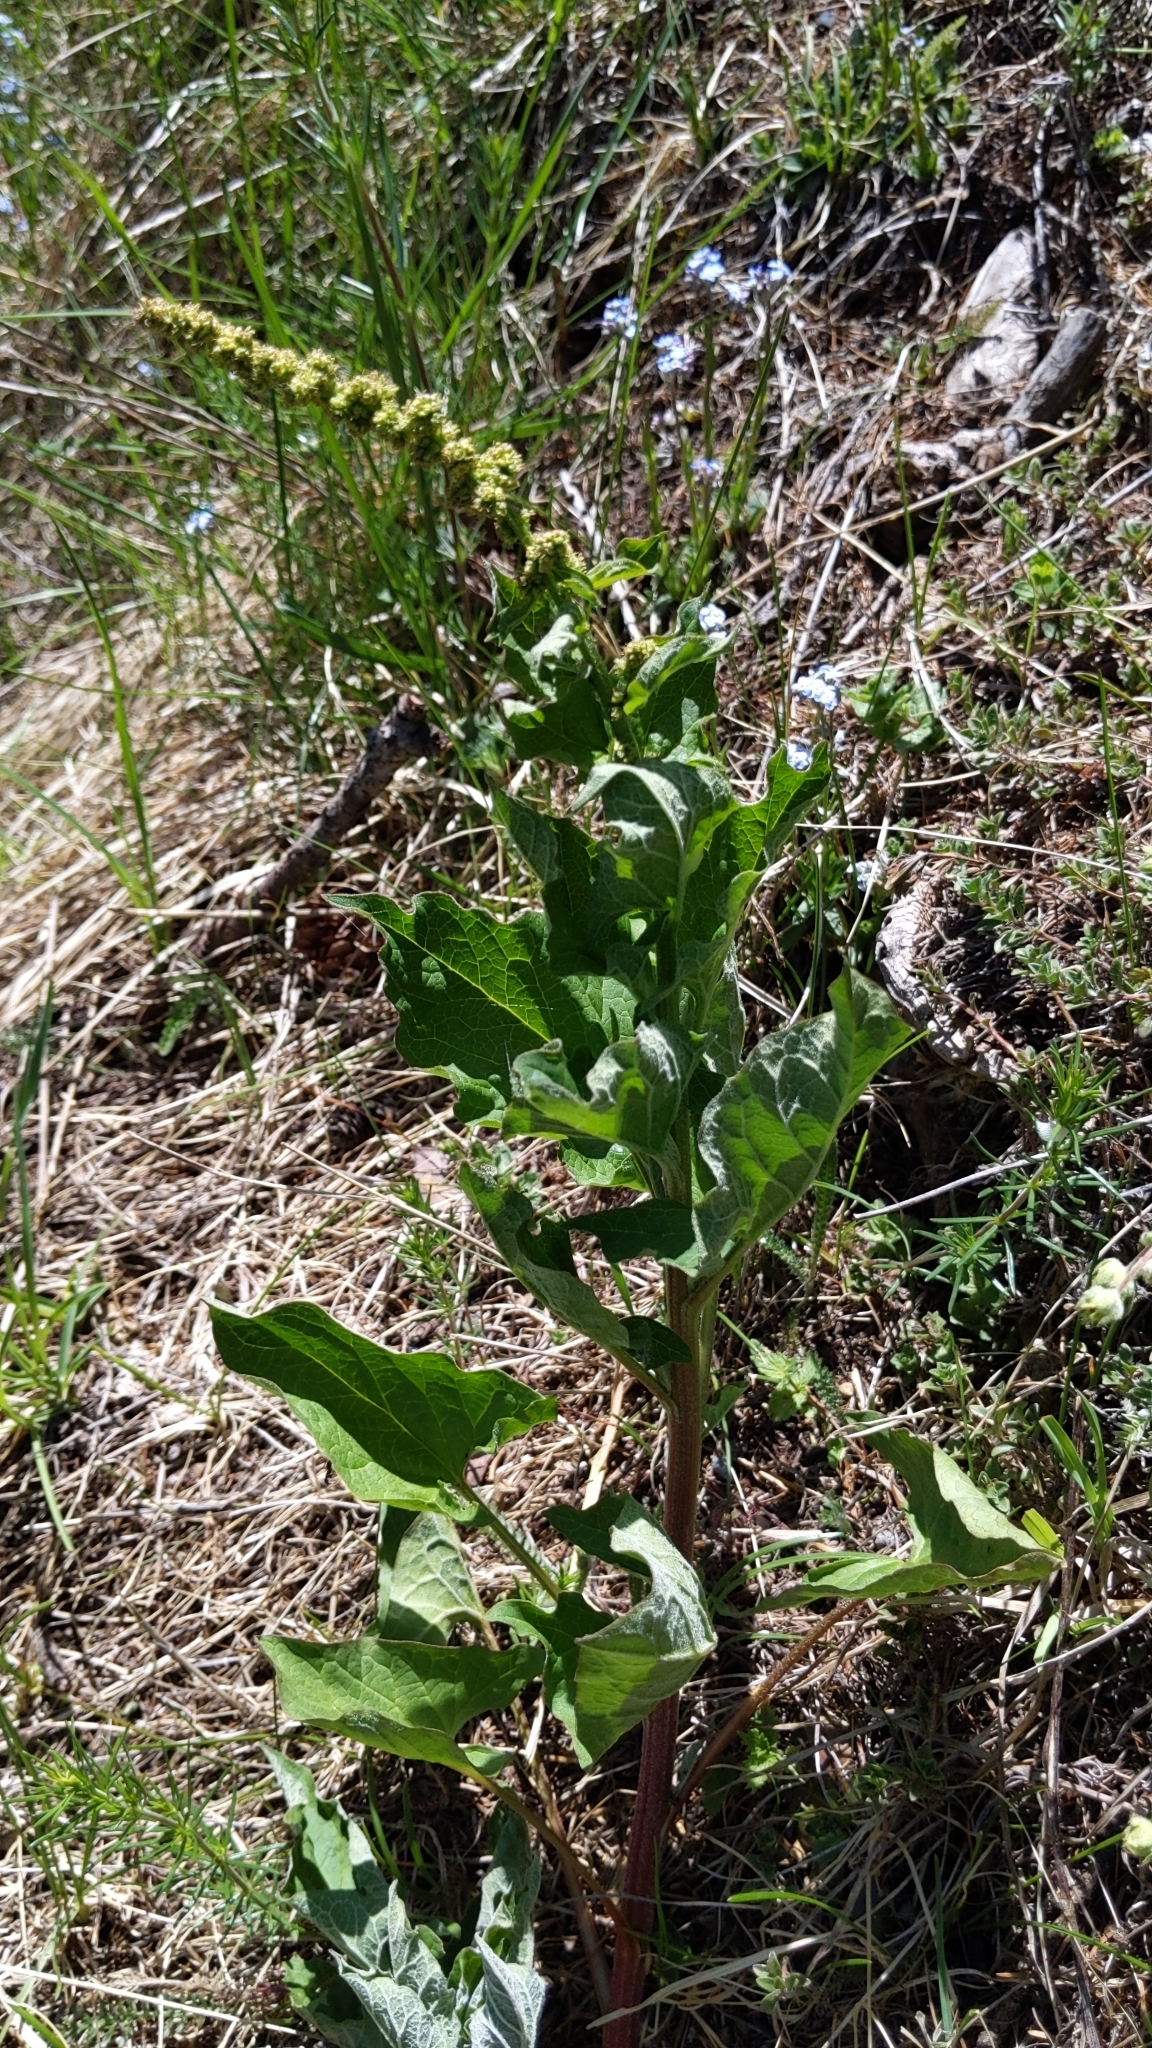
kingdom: Plantae
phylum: Tracheophyta
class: Magnoliopsida
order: Caryophyllales
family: Amaranthaceae
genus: Blitum
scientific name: Blitum bonus-henricus
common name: Good king henry
